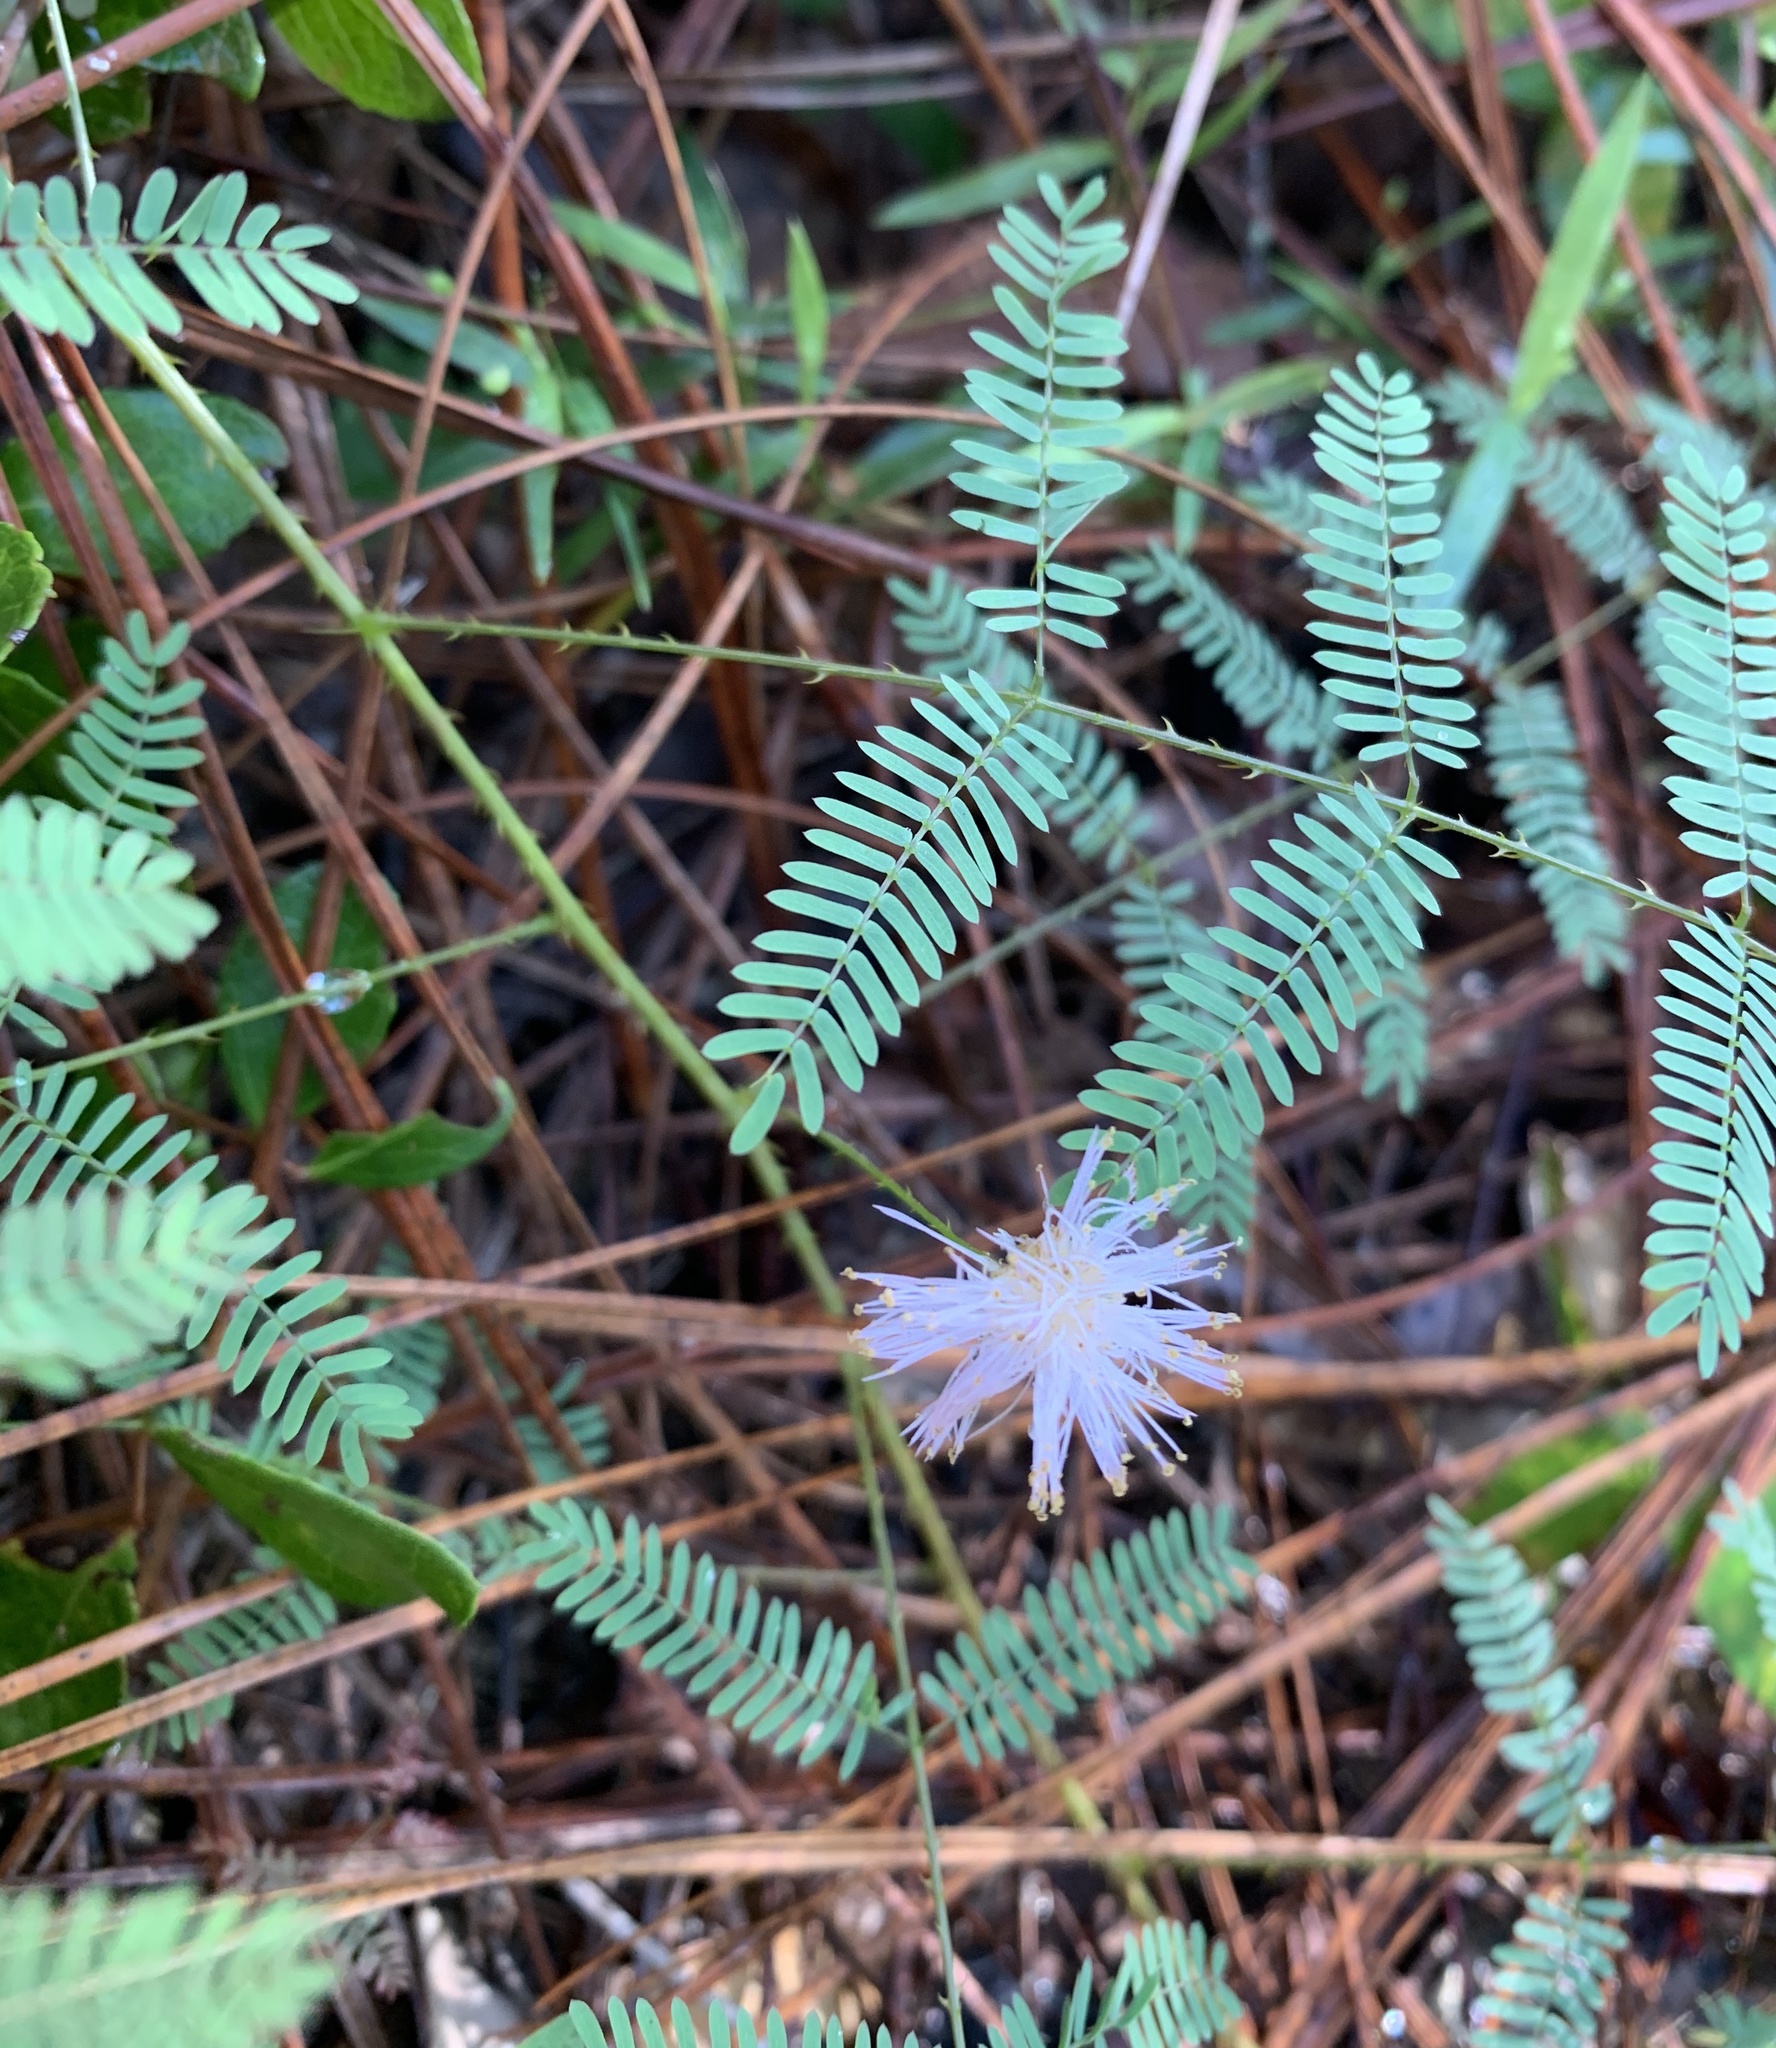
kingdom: Plantae
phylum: Tracheophyta
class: Magnoliopsida
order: Fabales
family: Fabaceae
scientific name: Fabaceae
